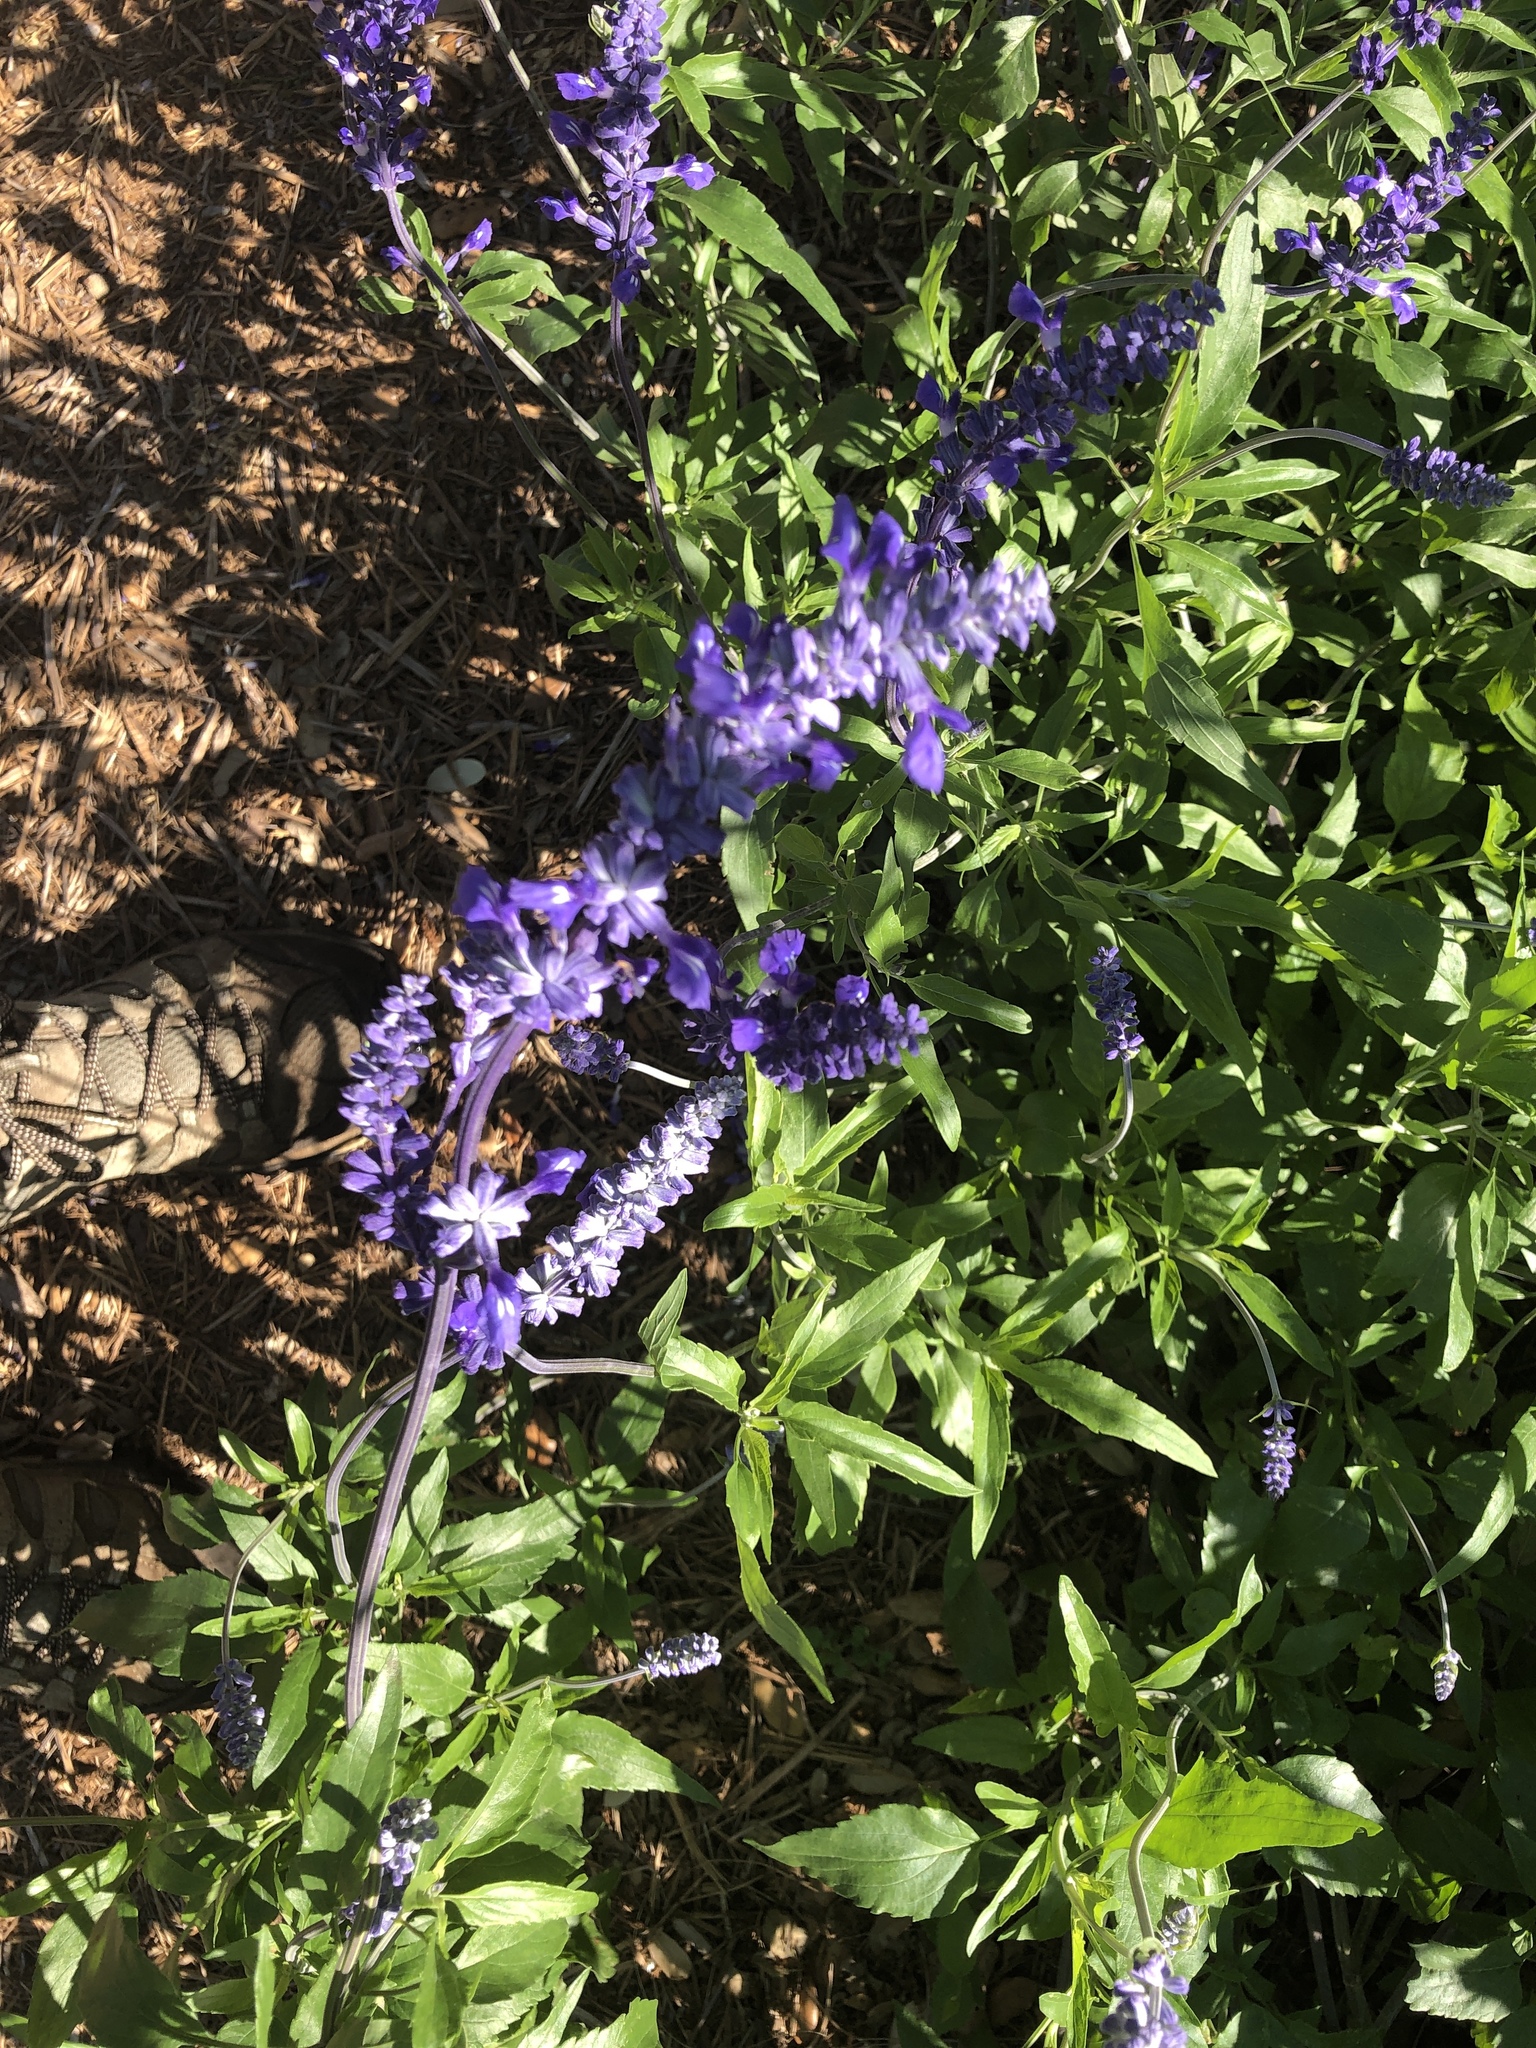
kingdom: Plantae
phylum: Tracheophyta
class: Magnoliopsida
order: Lamiales
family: Lamiaceae
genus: Salvia
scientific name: Salvia farinacea
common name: Mealy sage
